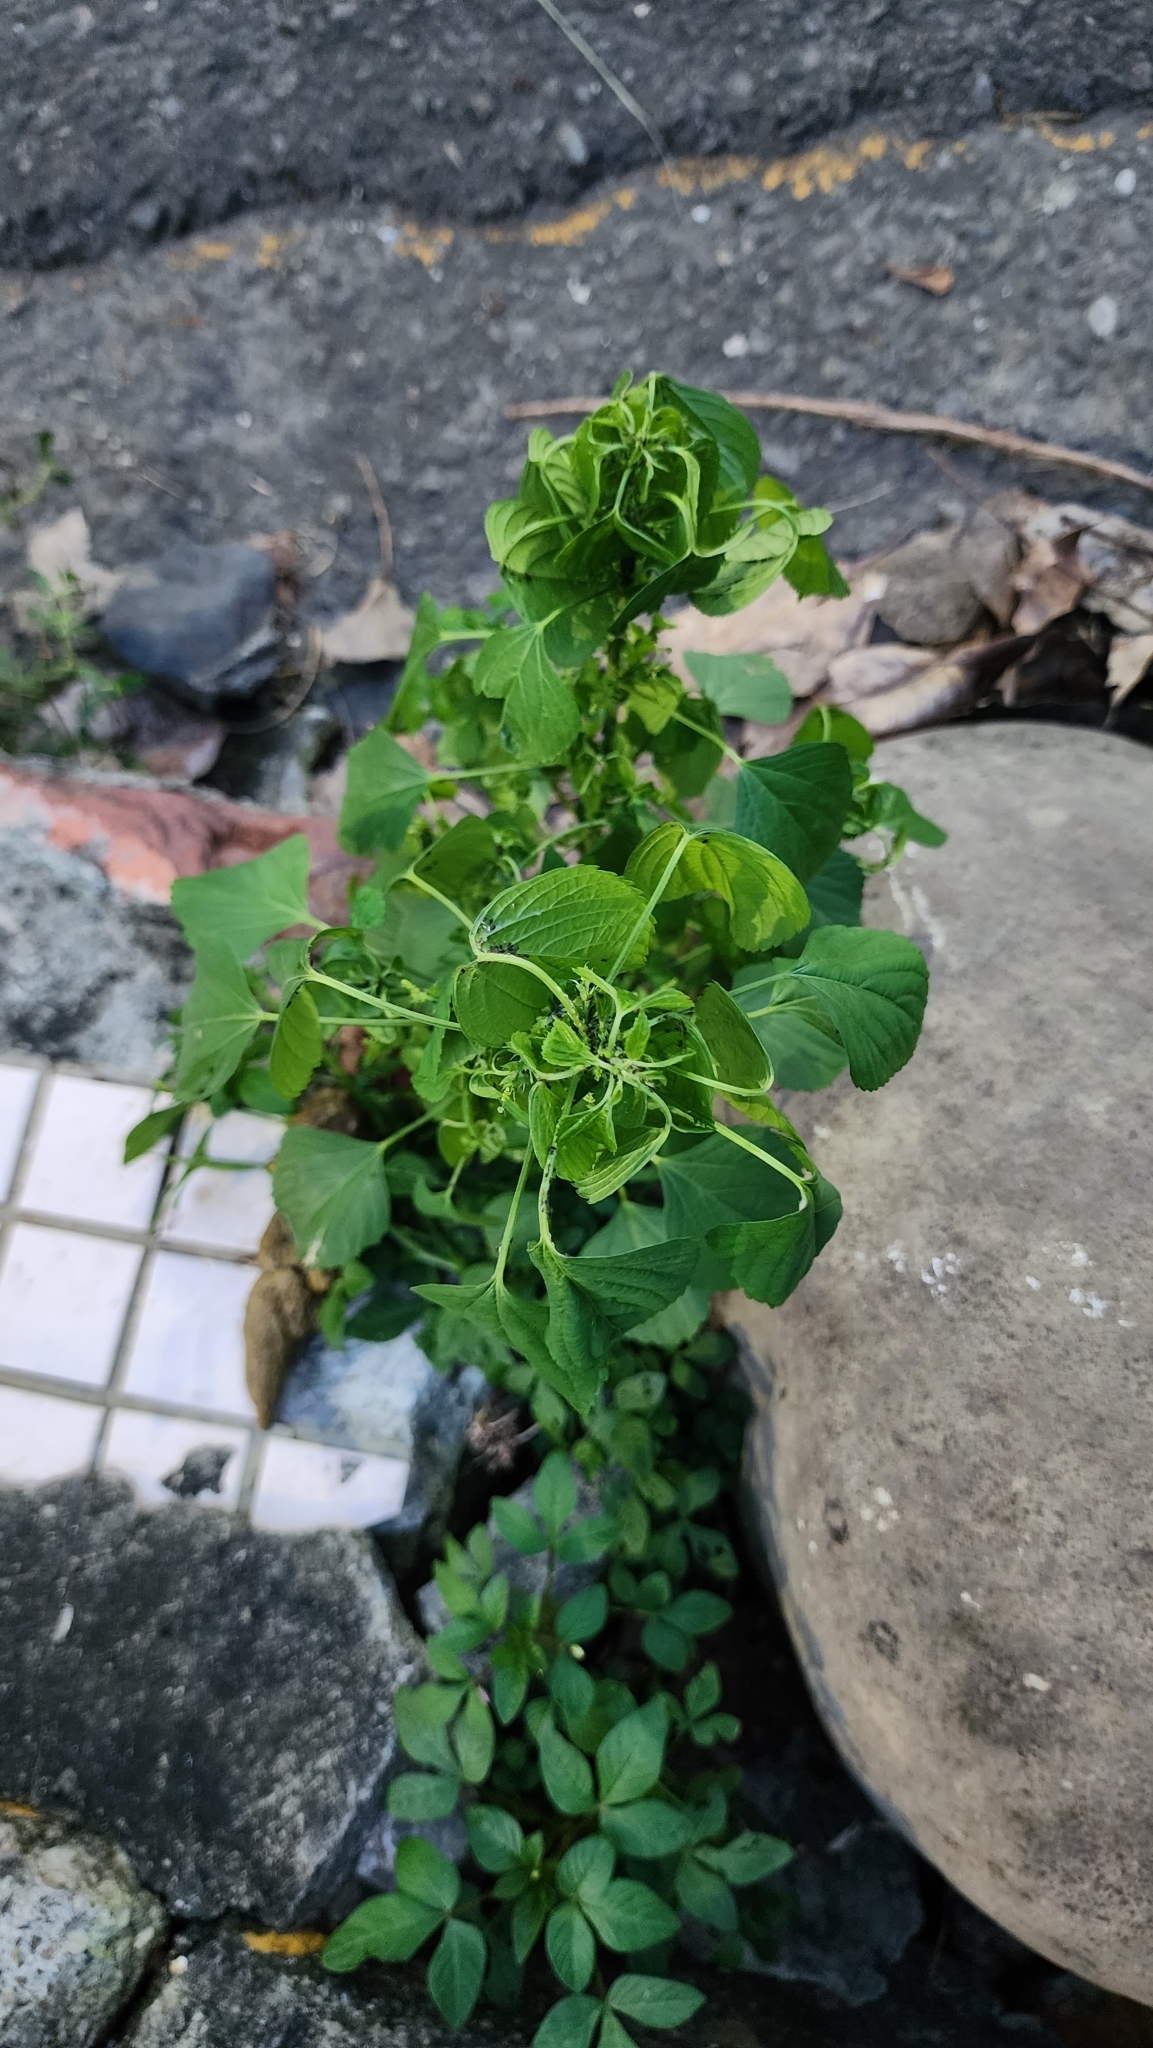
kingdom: Plantae
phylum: Tracheophyta
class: Magnoliopsida
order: Malpighiales
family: Euphorbiaceae
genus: Acalypha
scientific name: Acalypha indica
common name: Indian acalypha
